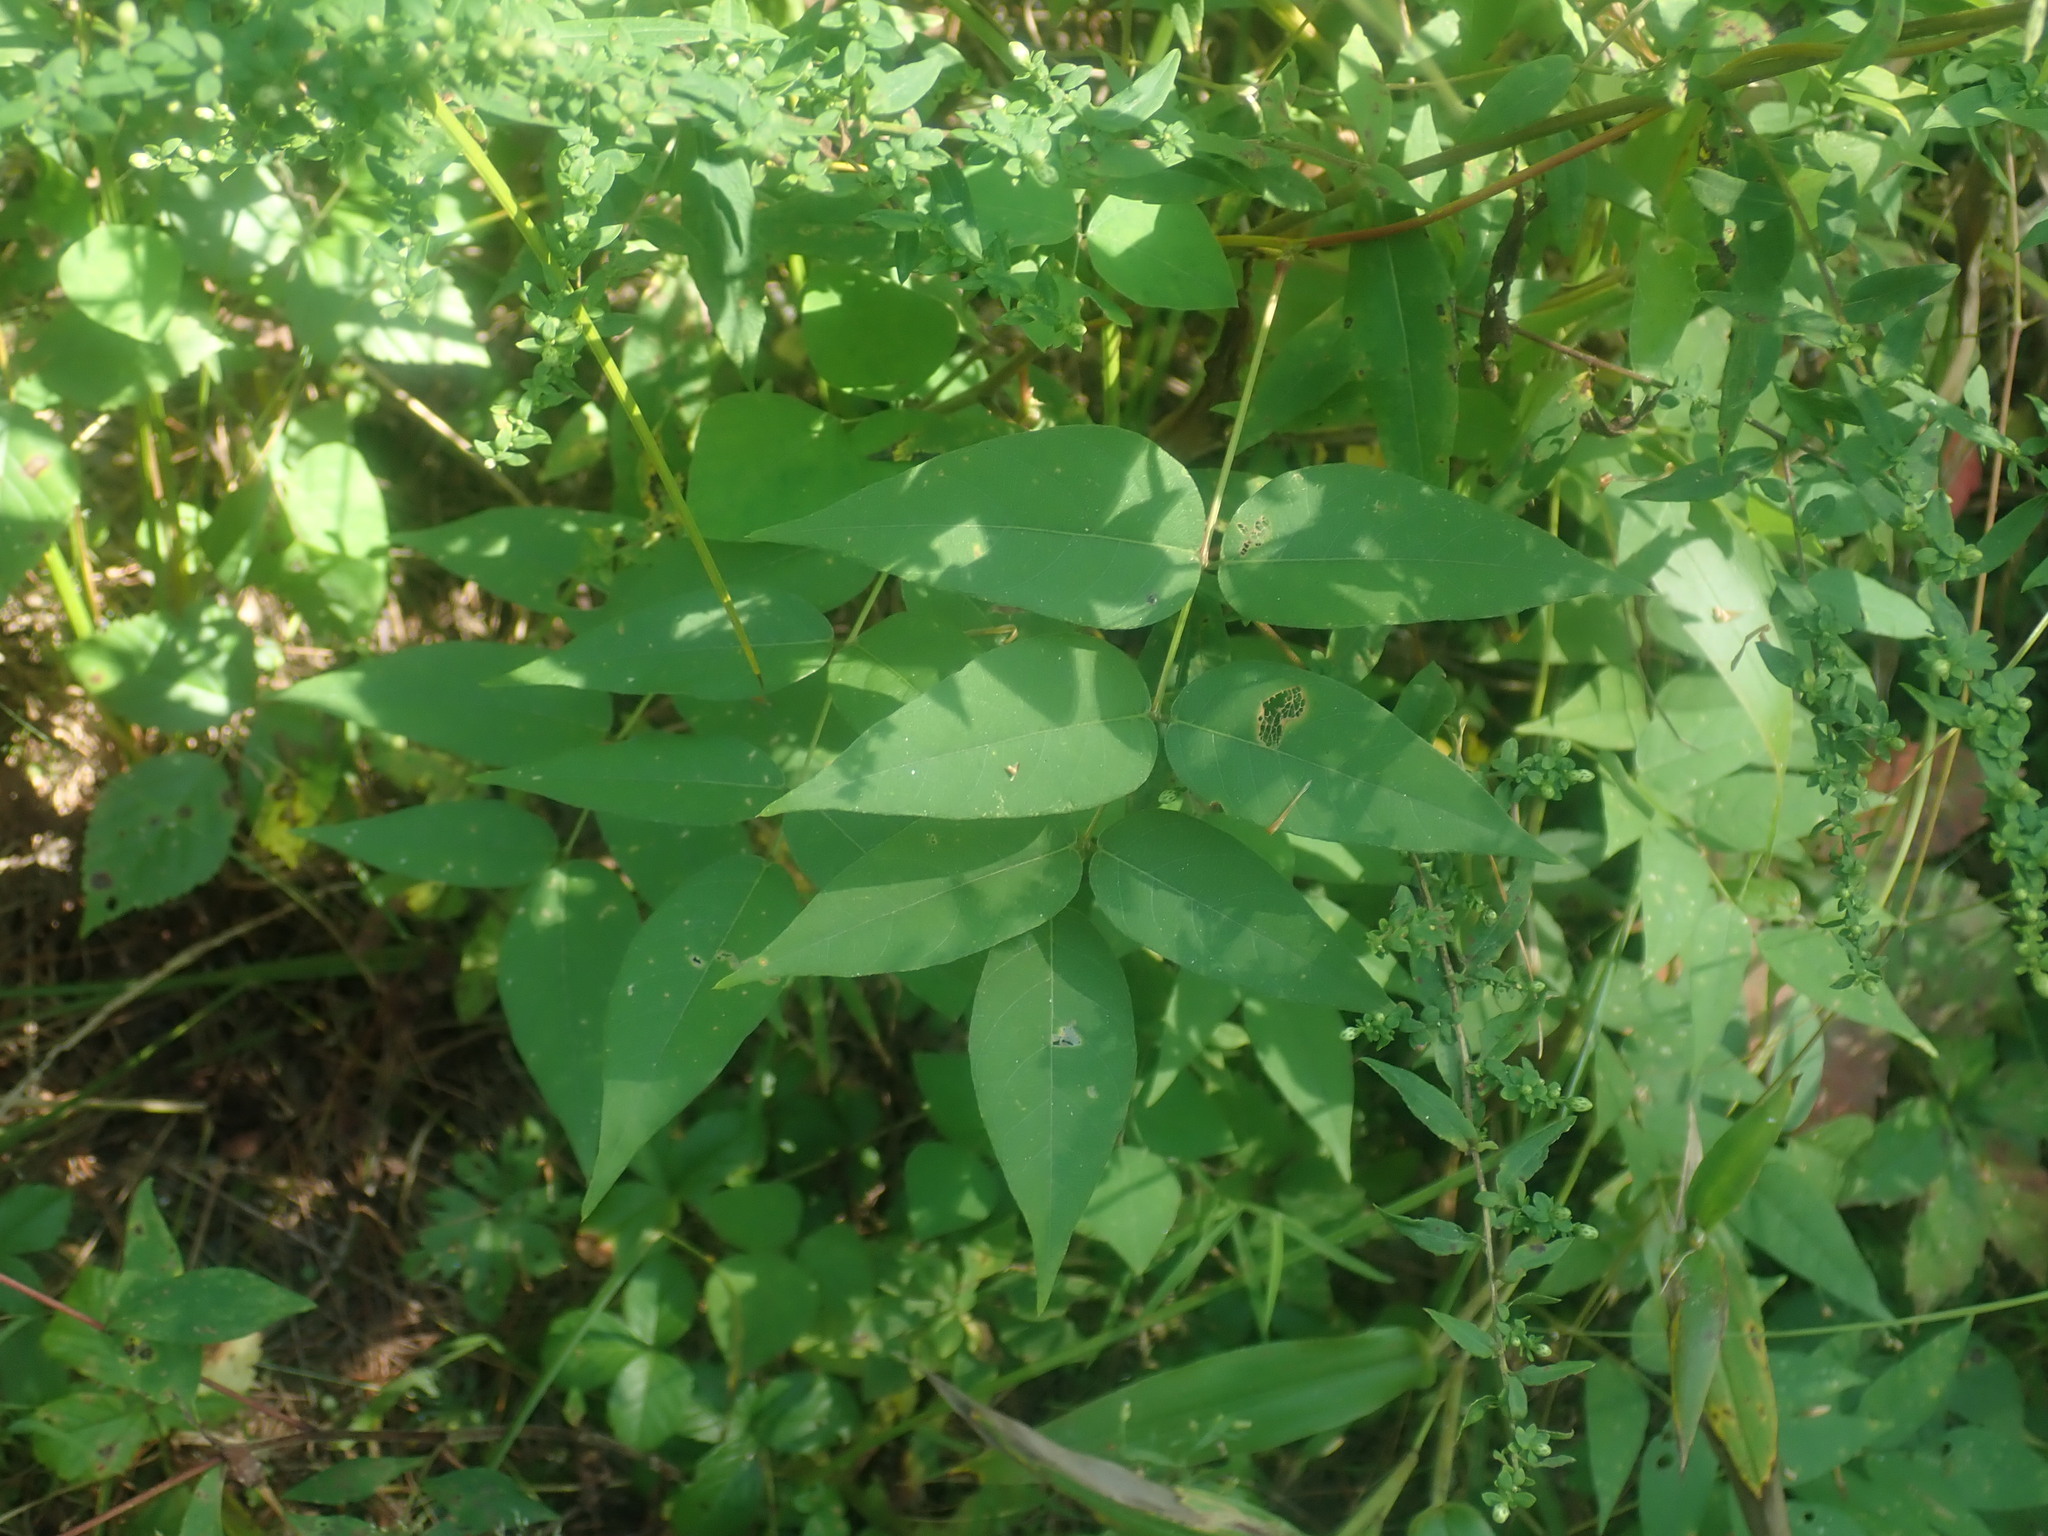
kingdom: Plantae
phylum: Tracheophyta
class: Magnoliopsida
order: Fabales
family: Fabaceae
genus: Apios
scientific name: Apios americana
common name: American potato-bean
